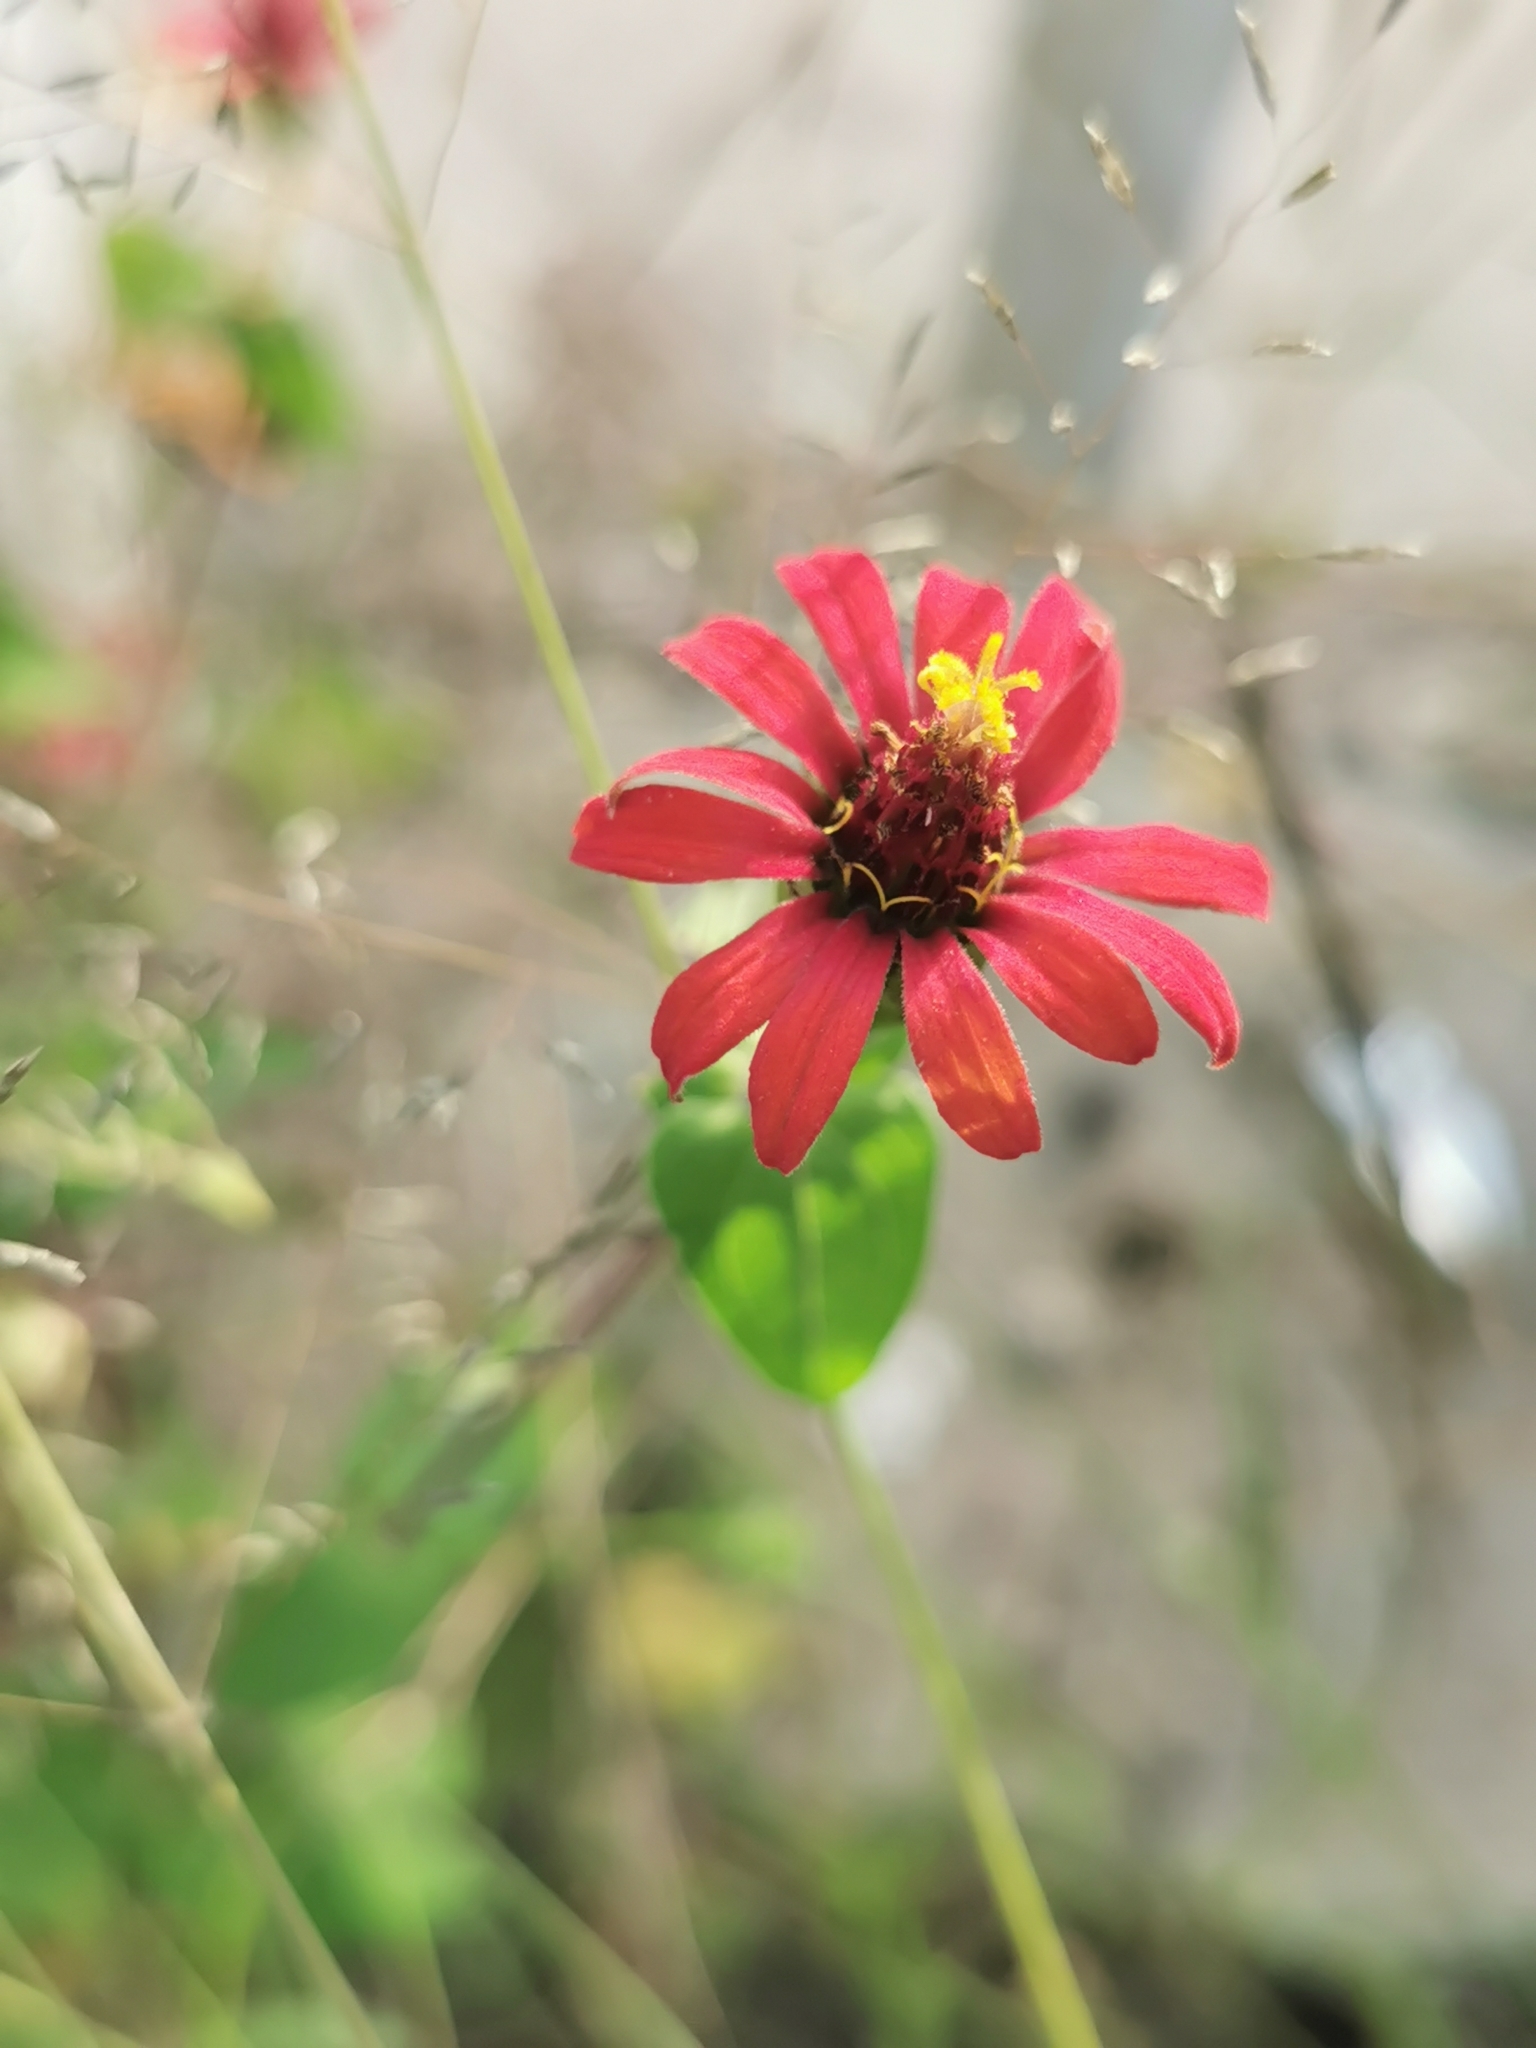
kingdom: Plantae
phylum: Tracheophyta
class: Magnoliopsida
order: Asterales
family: Asteraceae
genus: Zinnia
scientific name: Zinnia peruviana
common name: Peruvian zinnia
